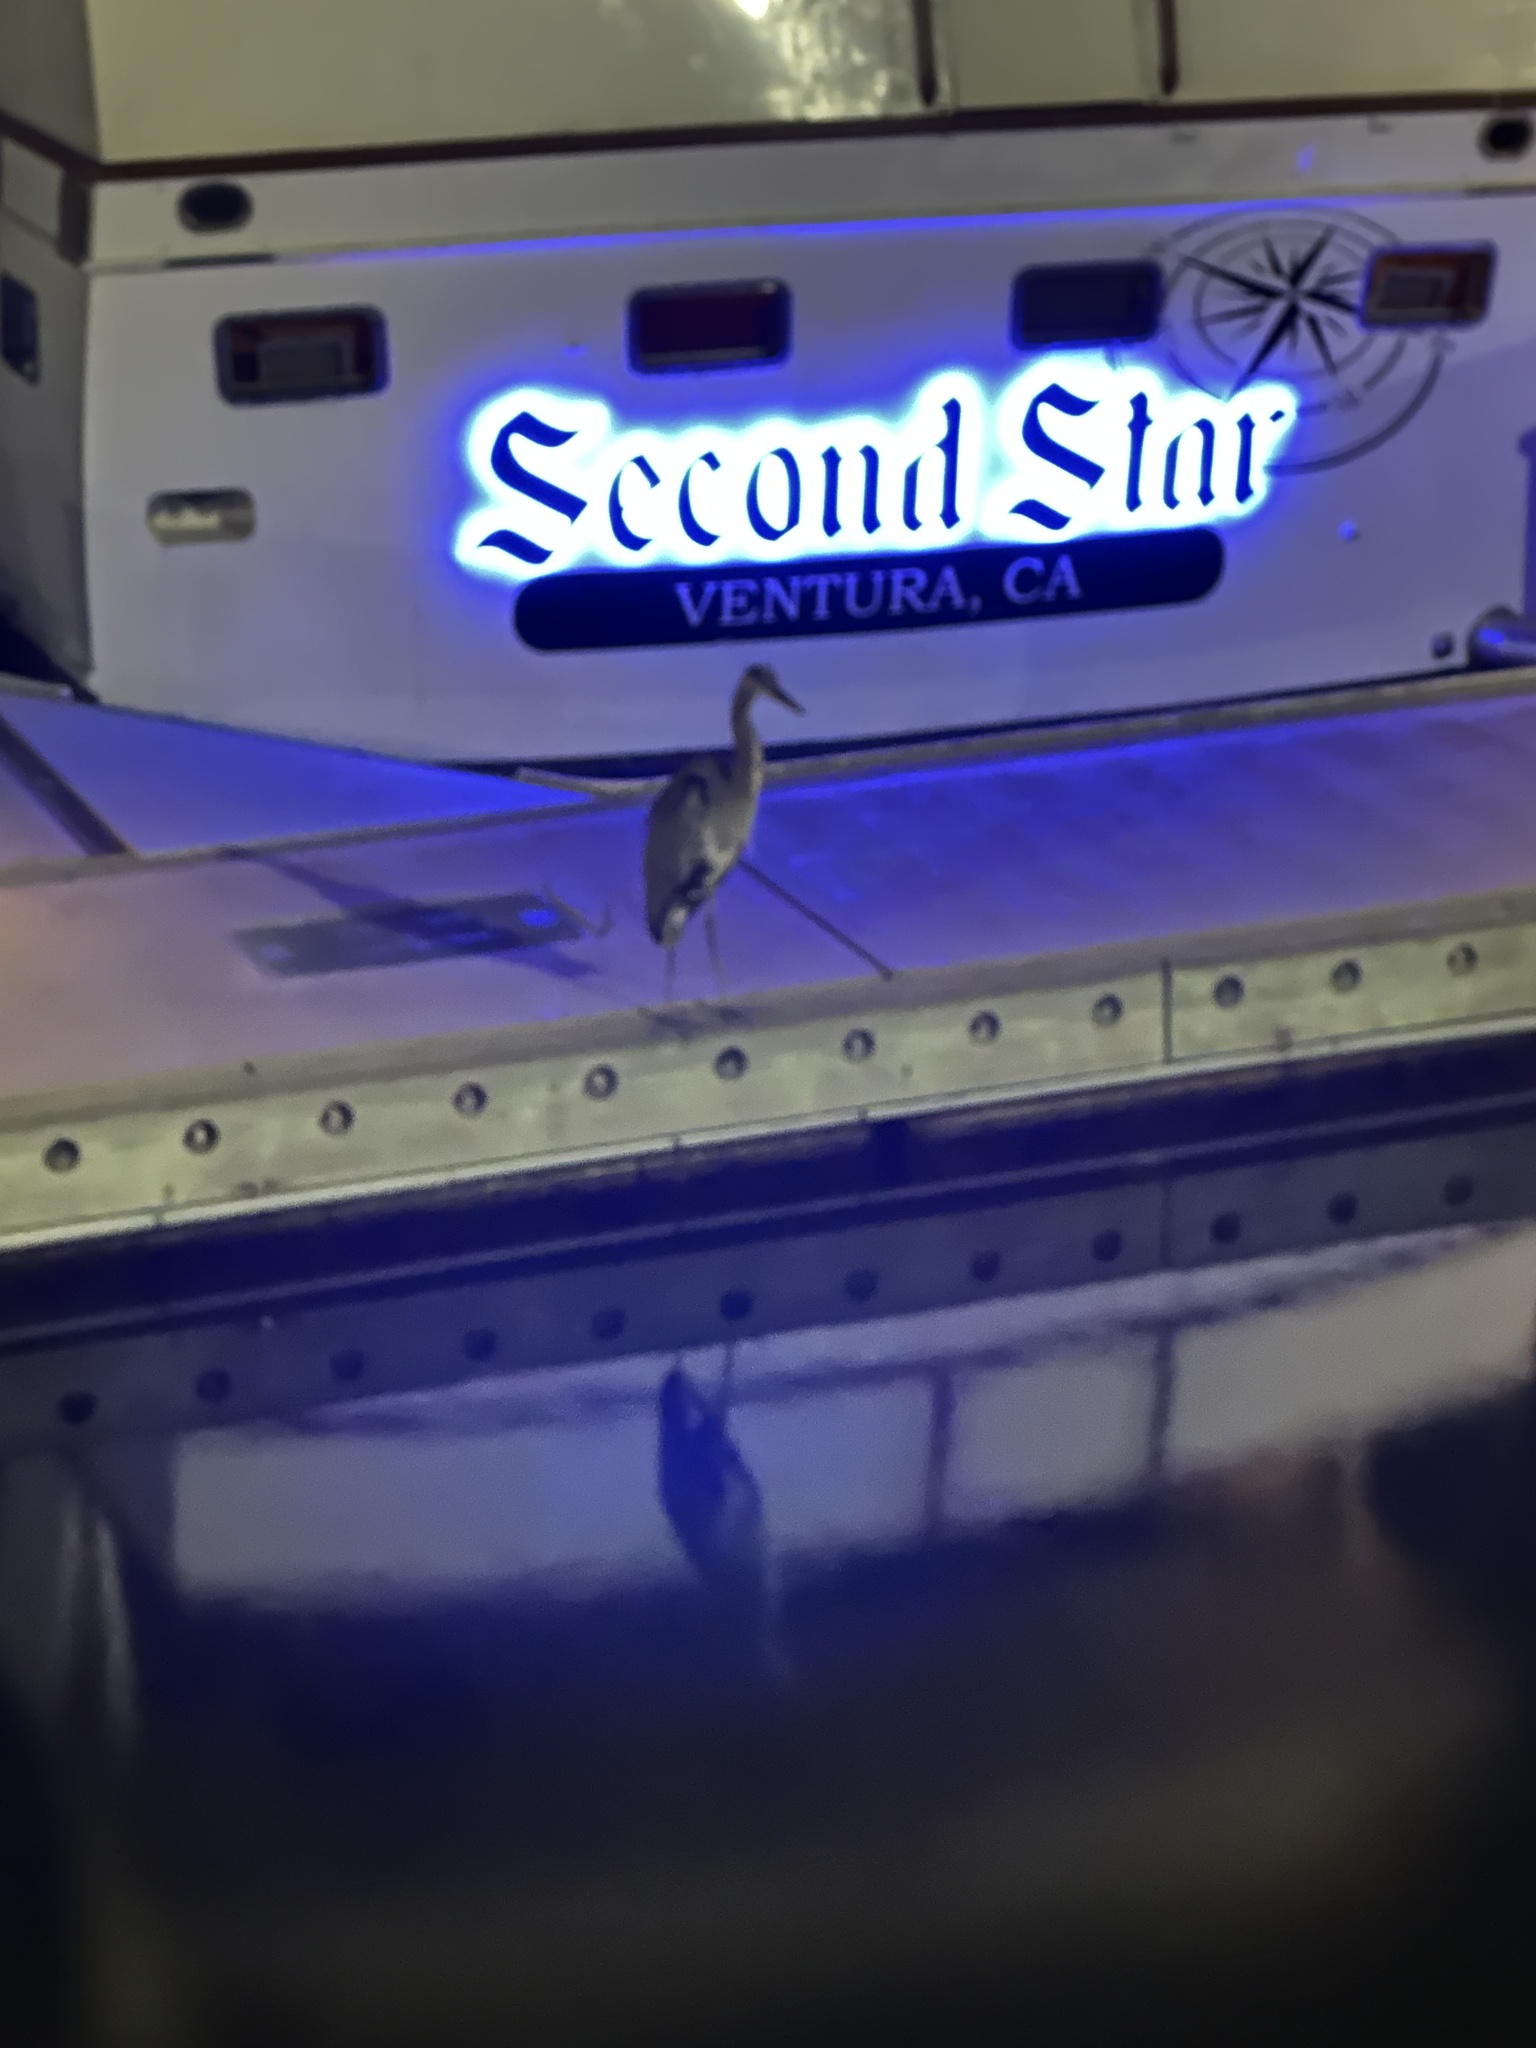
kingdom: Animalia
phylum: Chordata
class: Aves
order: Pelecaniformes
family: Ardeidae
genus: Ardea
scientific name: Ardea herodias
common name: Great blue heron
